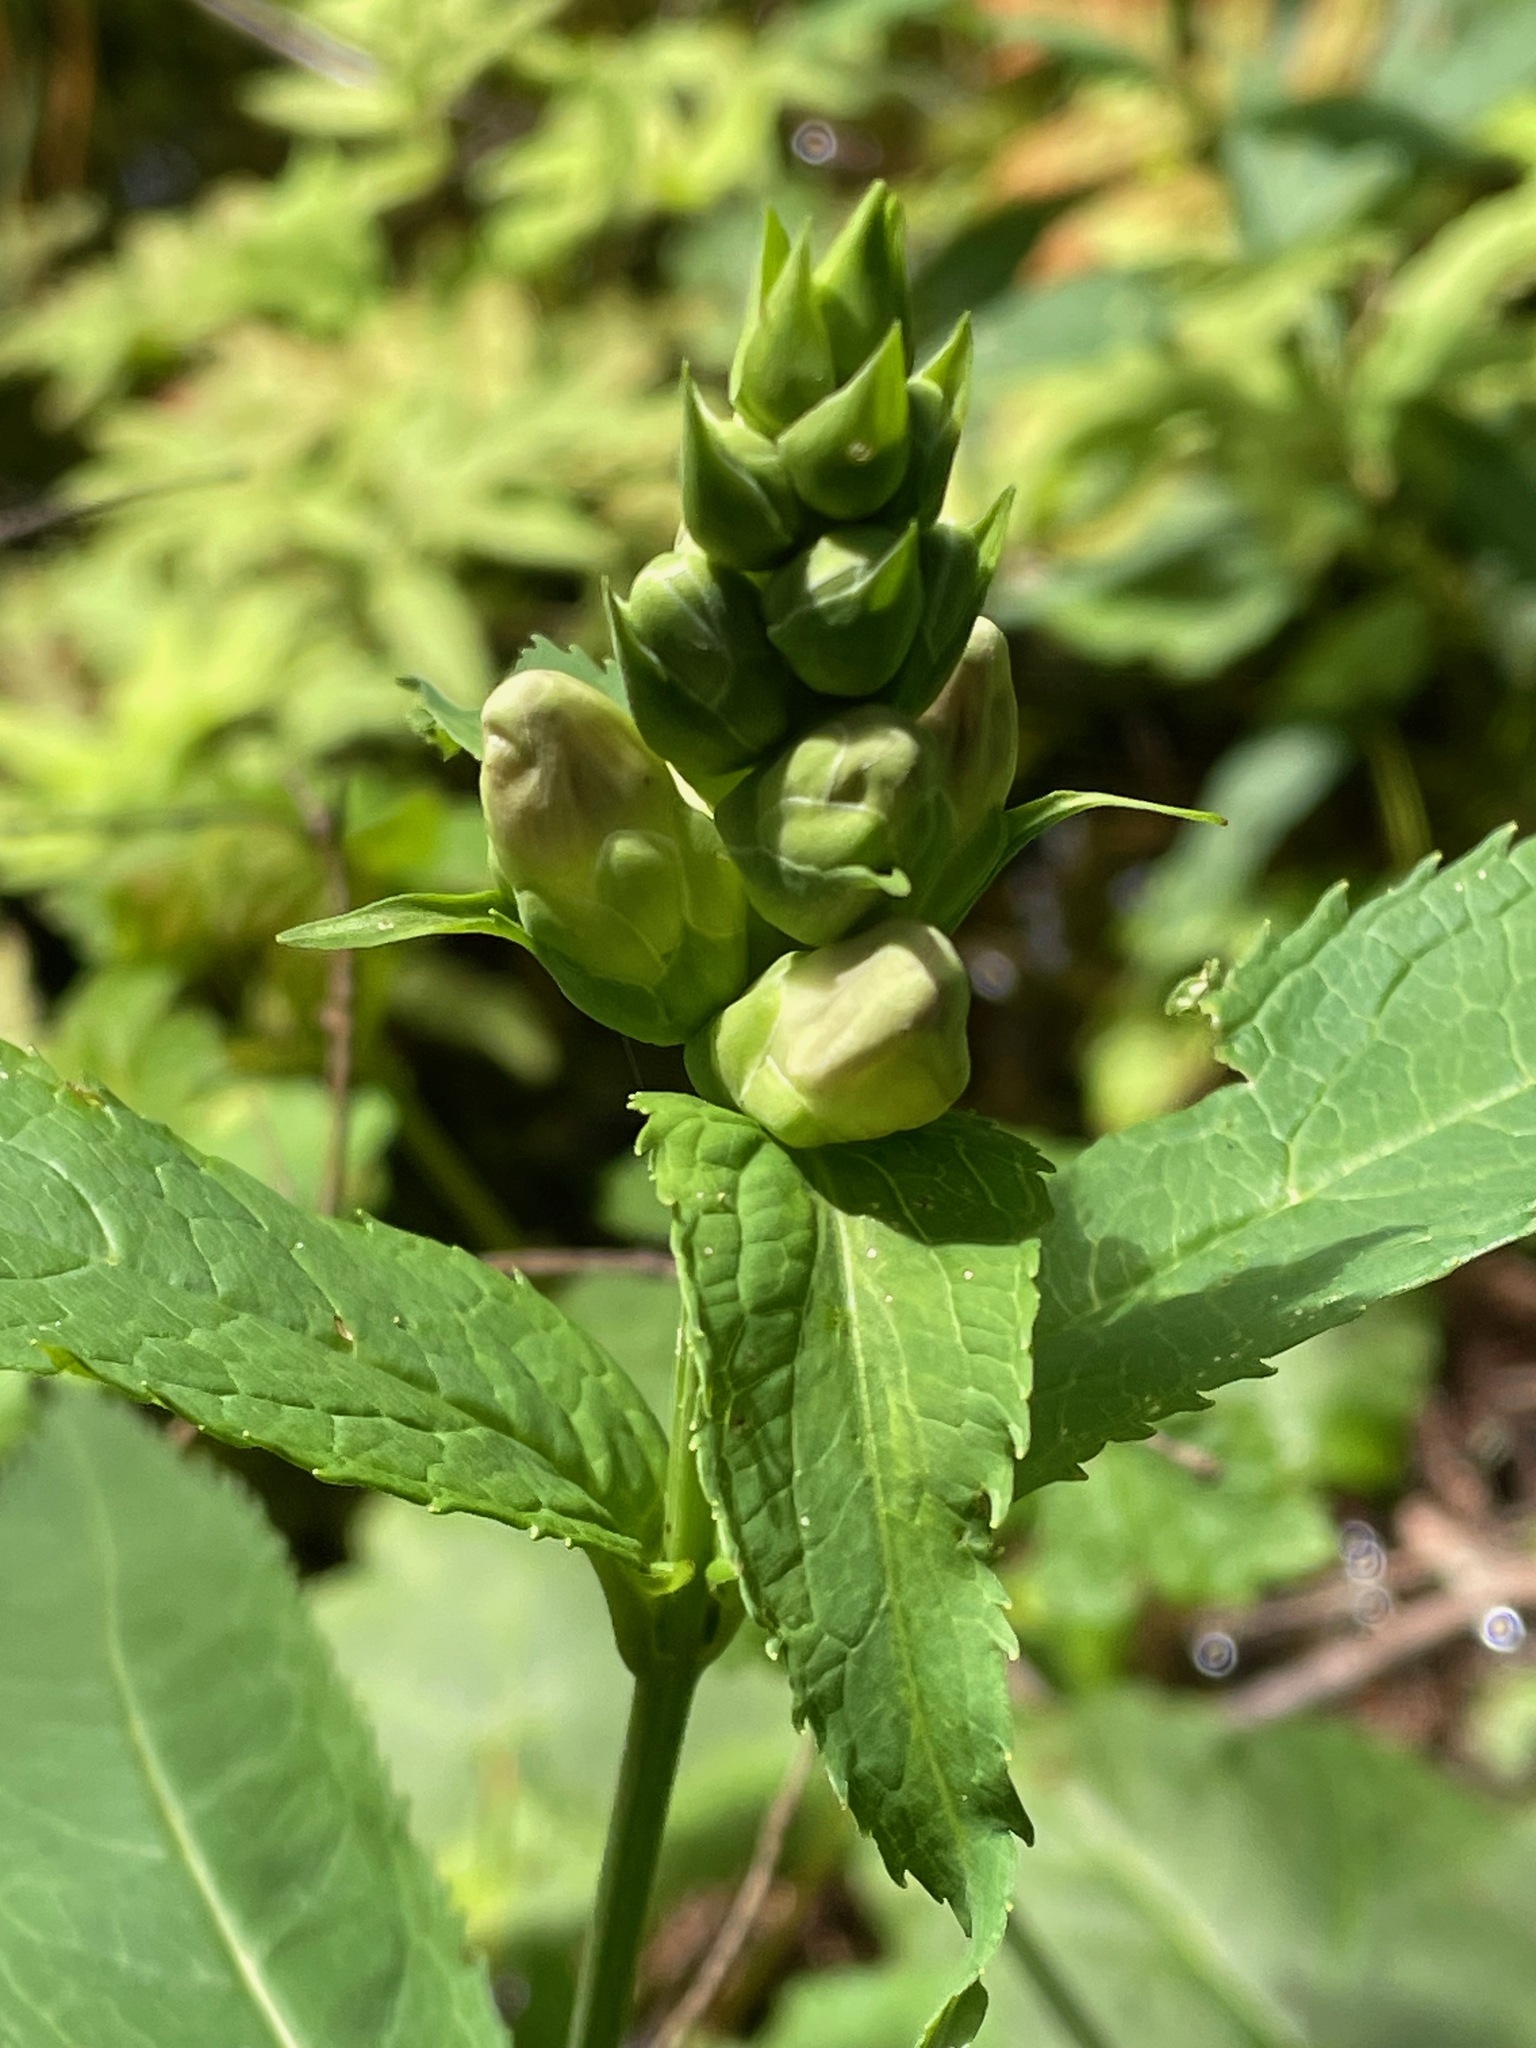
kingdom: Plantae
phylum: Tracheophyta
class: Magnoliopsida
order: Lamiales
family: Plantaginaceae
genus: Chelone
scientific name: Chelone glabra
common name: Snakehead
